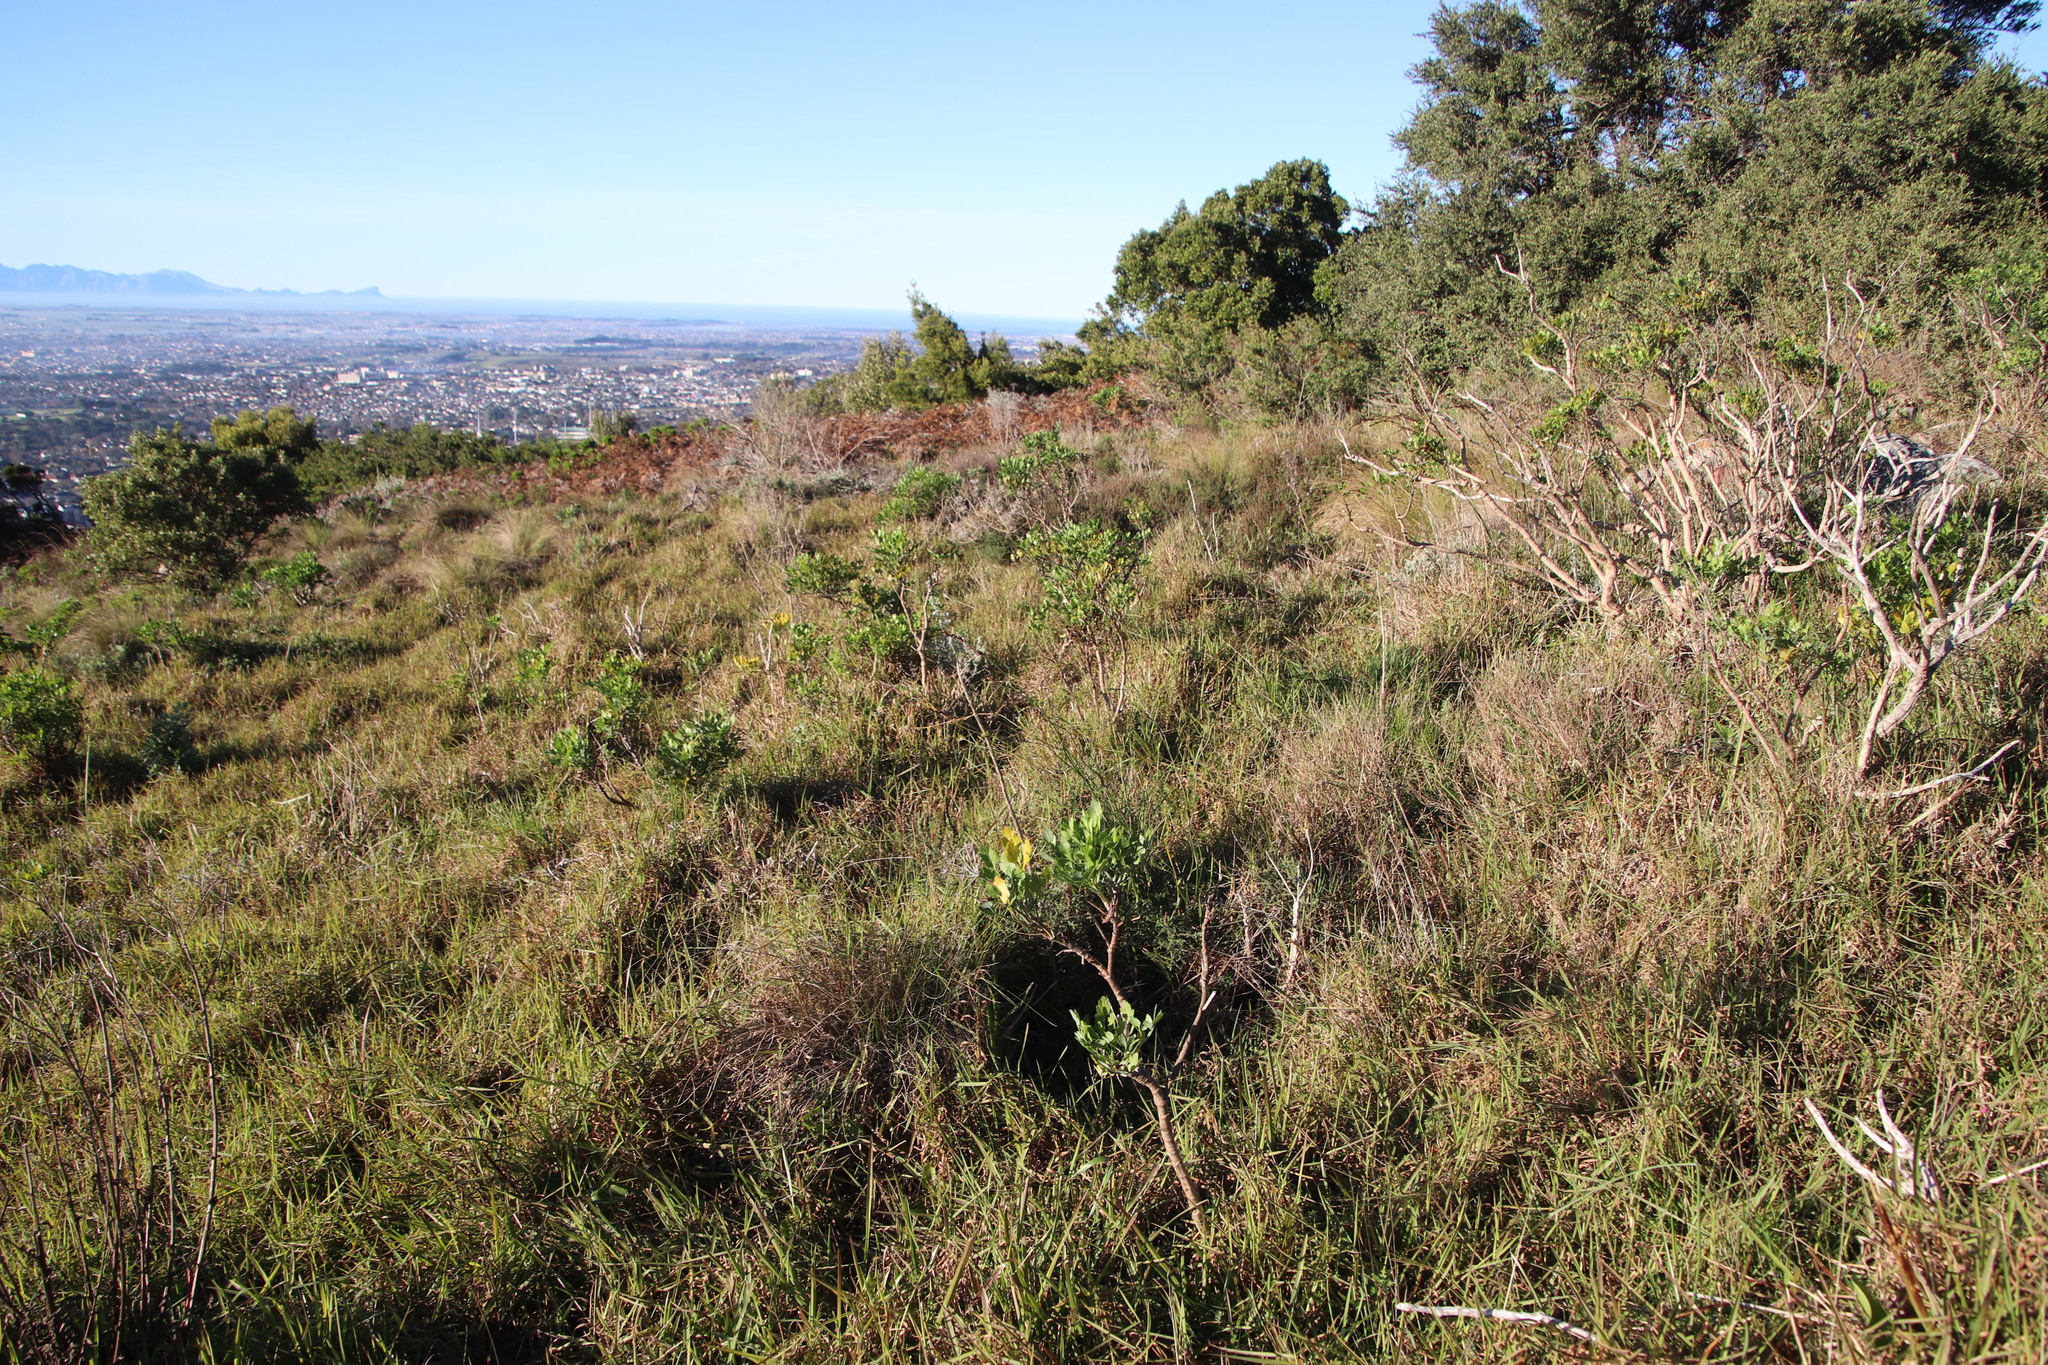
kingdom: Plantae
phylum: Tracheophyta
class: Magnoliopsida
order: Apiales
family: Apiaceae
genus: Notobubon
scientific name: Notobubon galbanum
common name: Blisterbush
